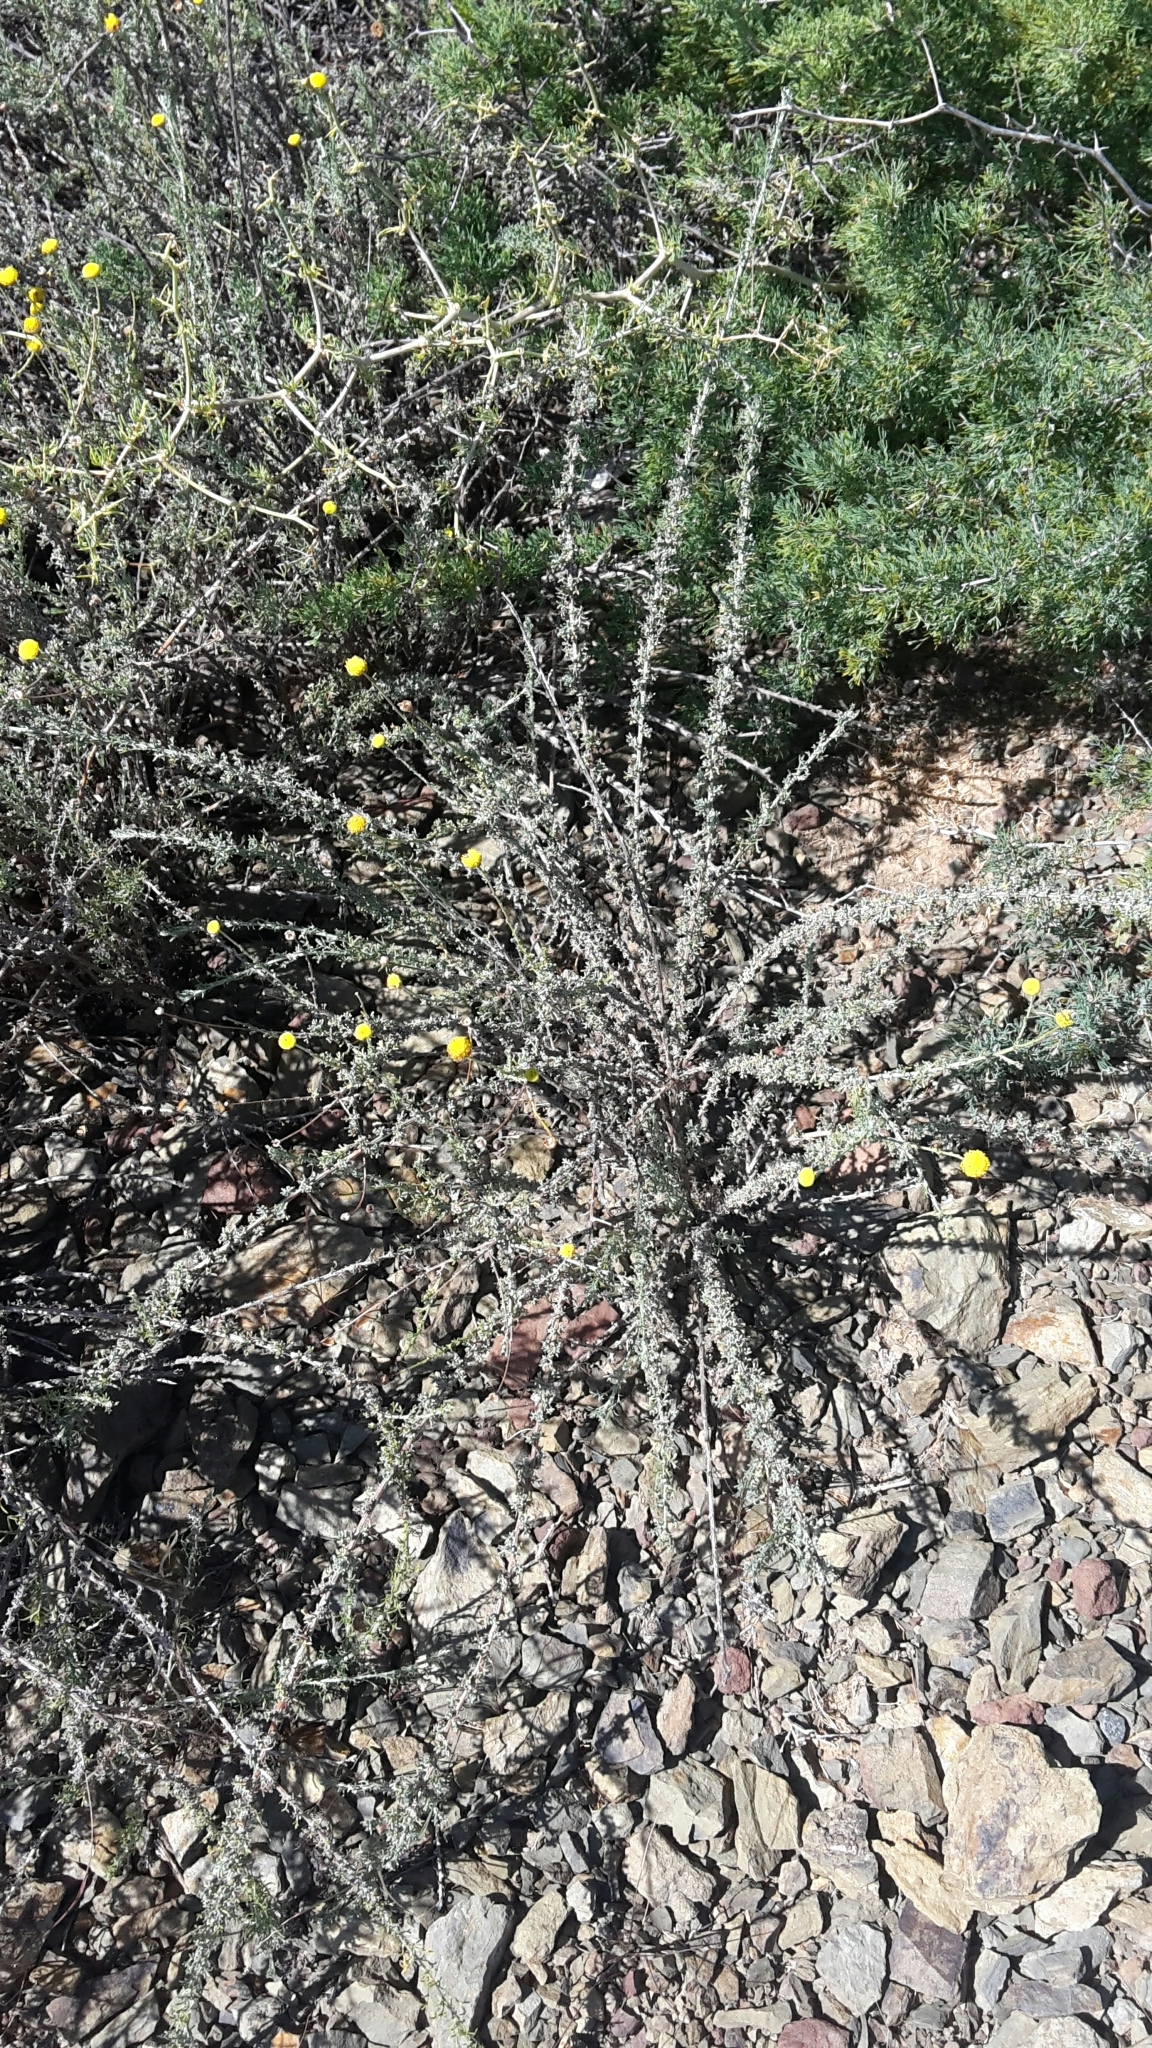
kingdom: Plantae
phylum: Tracheophyta
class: Magnoliopsida
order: Asterales
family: Asteraceae
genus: Pentzia
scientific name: Pentzia incana
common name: African sheepbush
